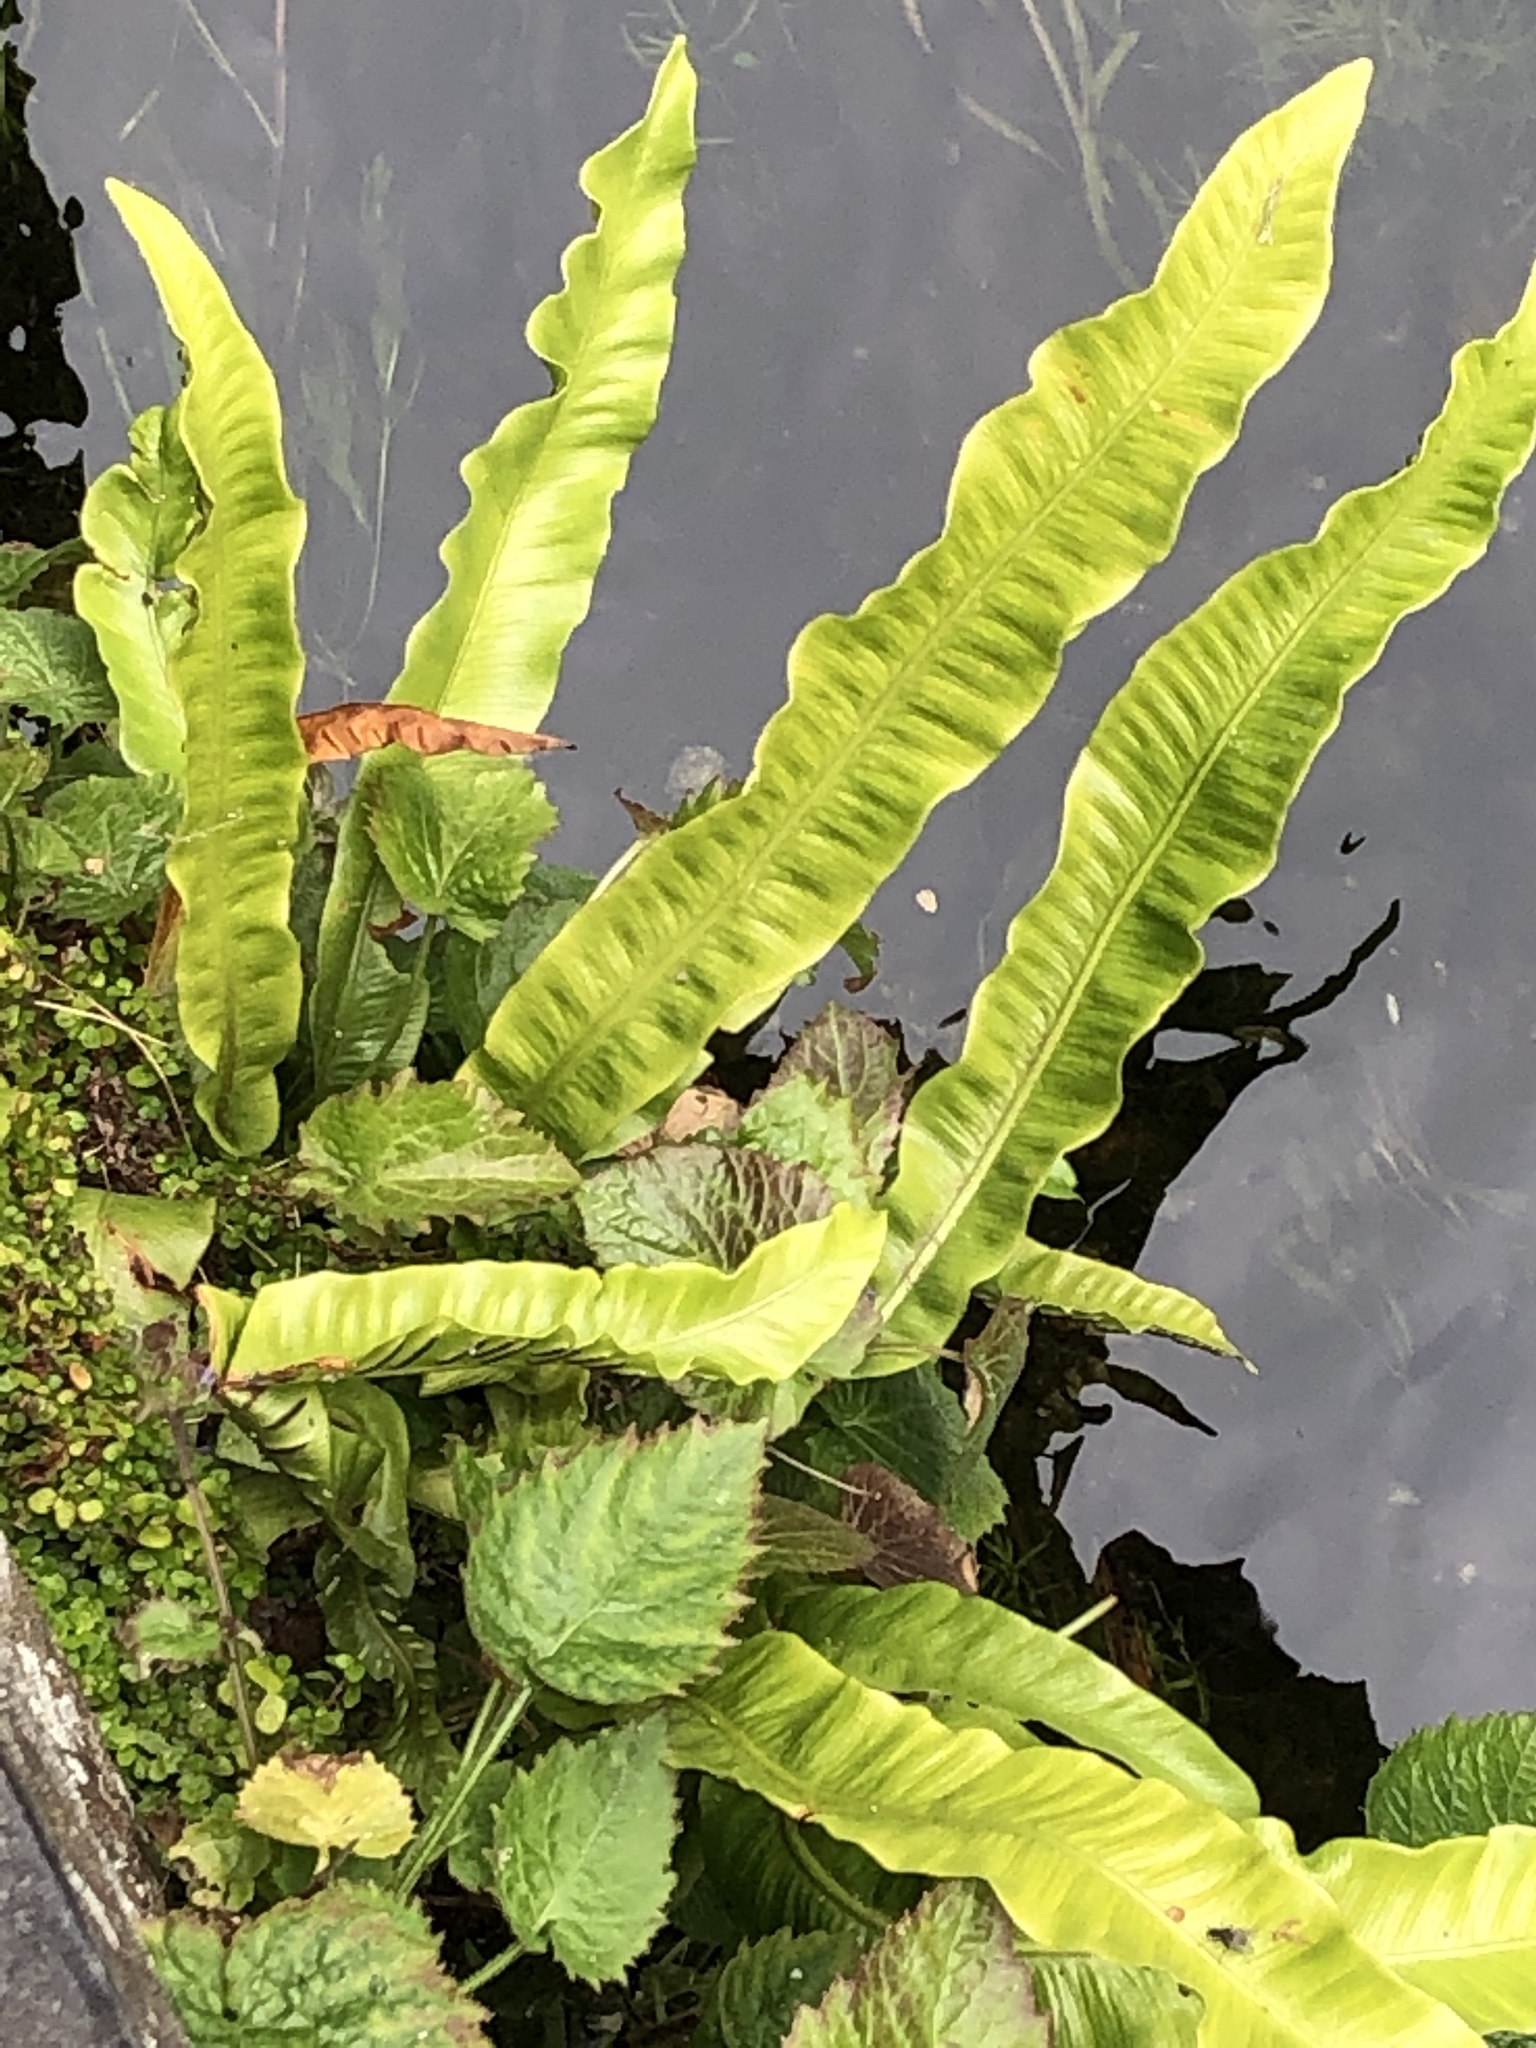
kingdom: Plantae
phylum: Tracheophyta
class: Polypodiopsida
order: Polypodiales
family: Aspleniaceae
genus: Asplenium
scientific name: Asplenium scolopendrium
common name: Hart's-tongue fern
